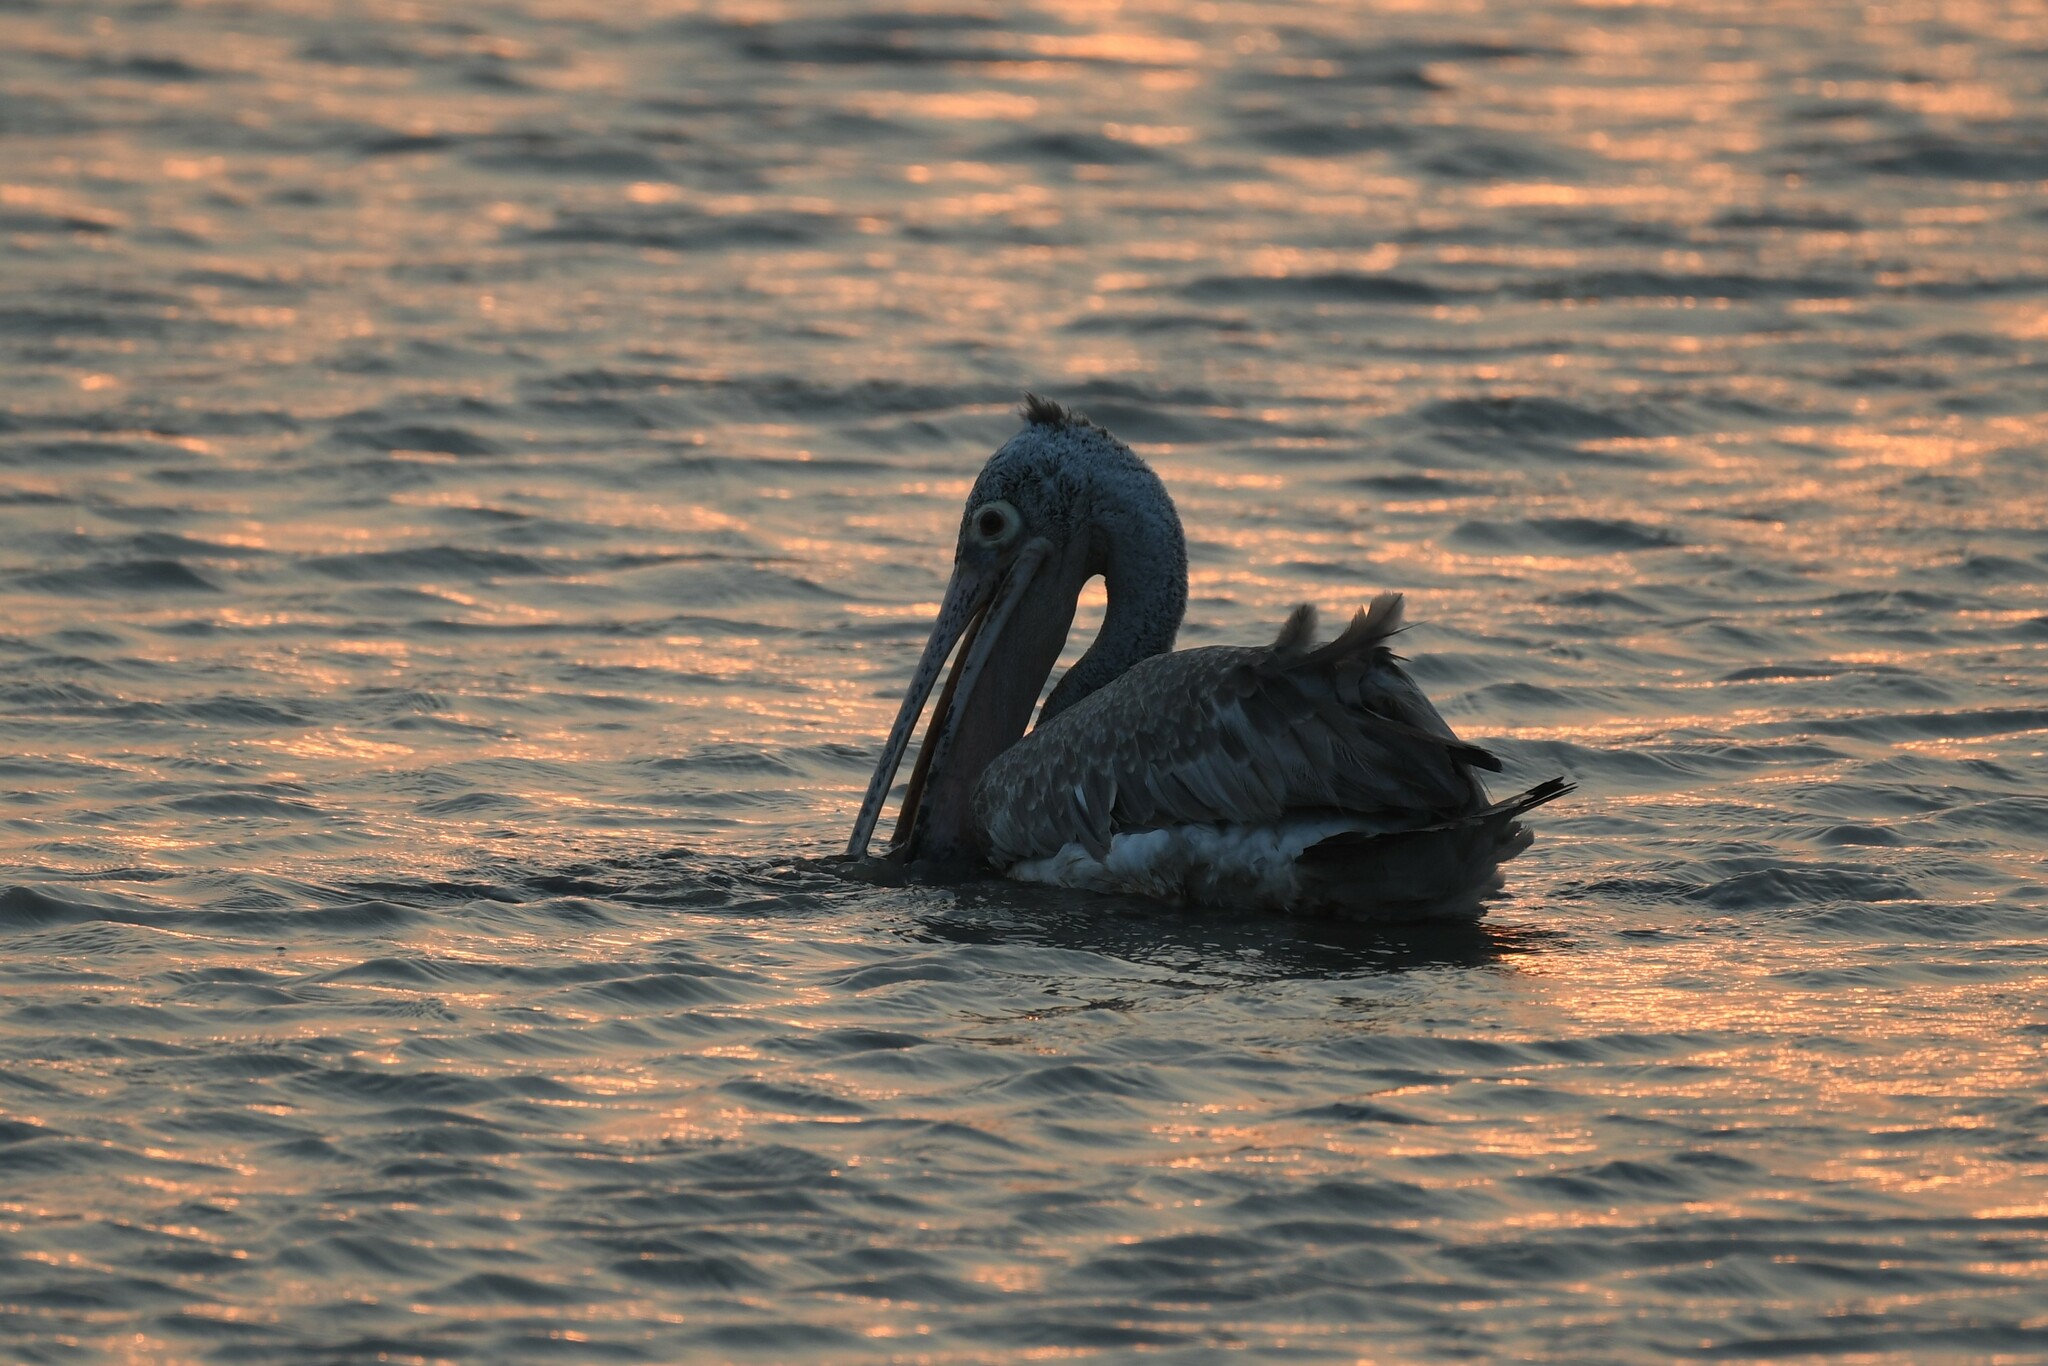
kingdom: Animalia
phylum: Chordata
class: Aves
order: Pelecaniformes
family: Pelecanidae
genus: Pelecanus
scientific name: Pelecanus philippensis
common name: Spot-billed pelican
